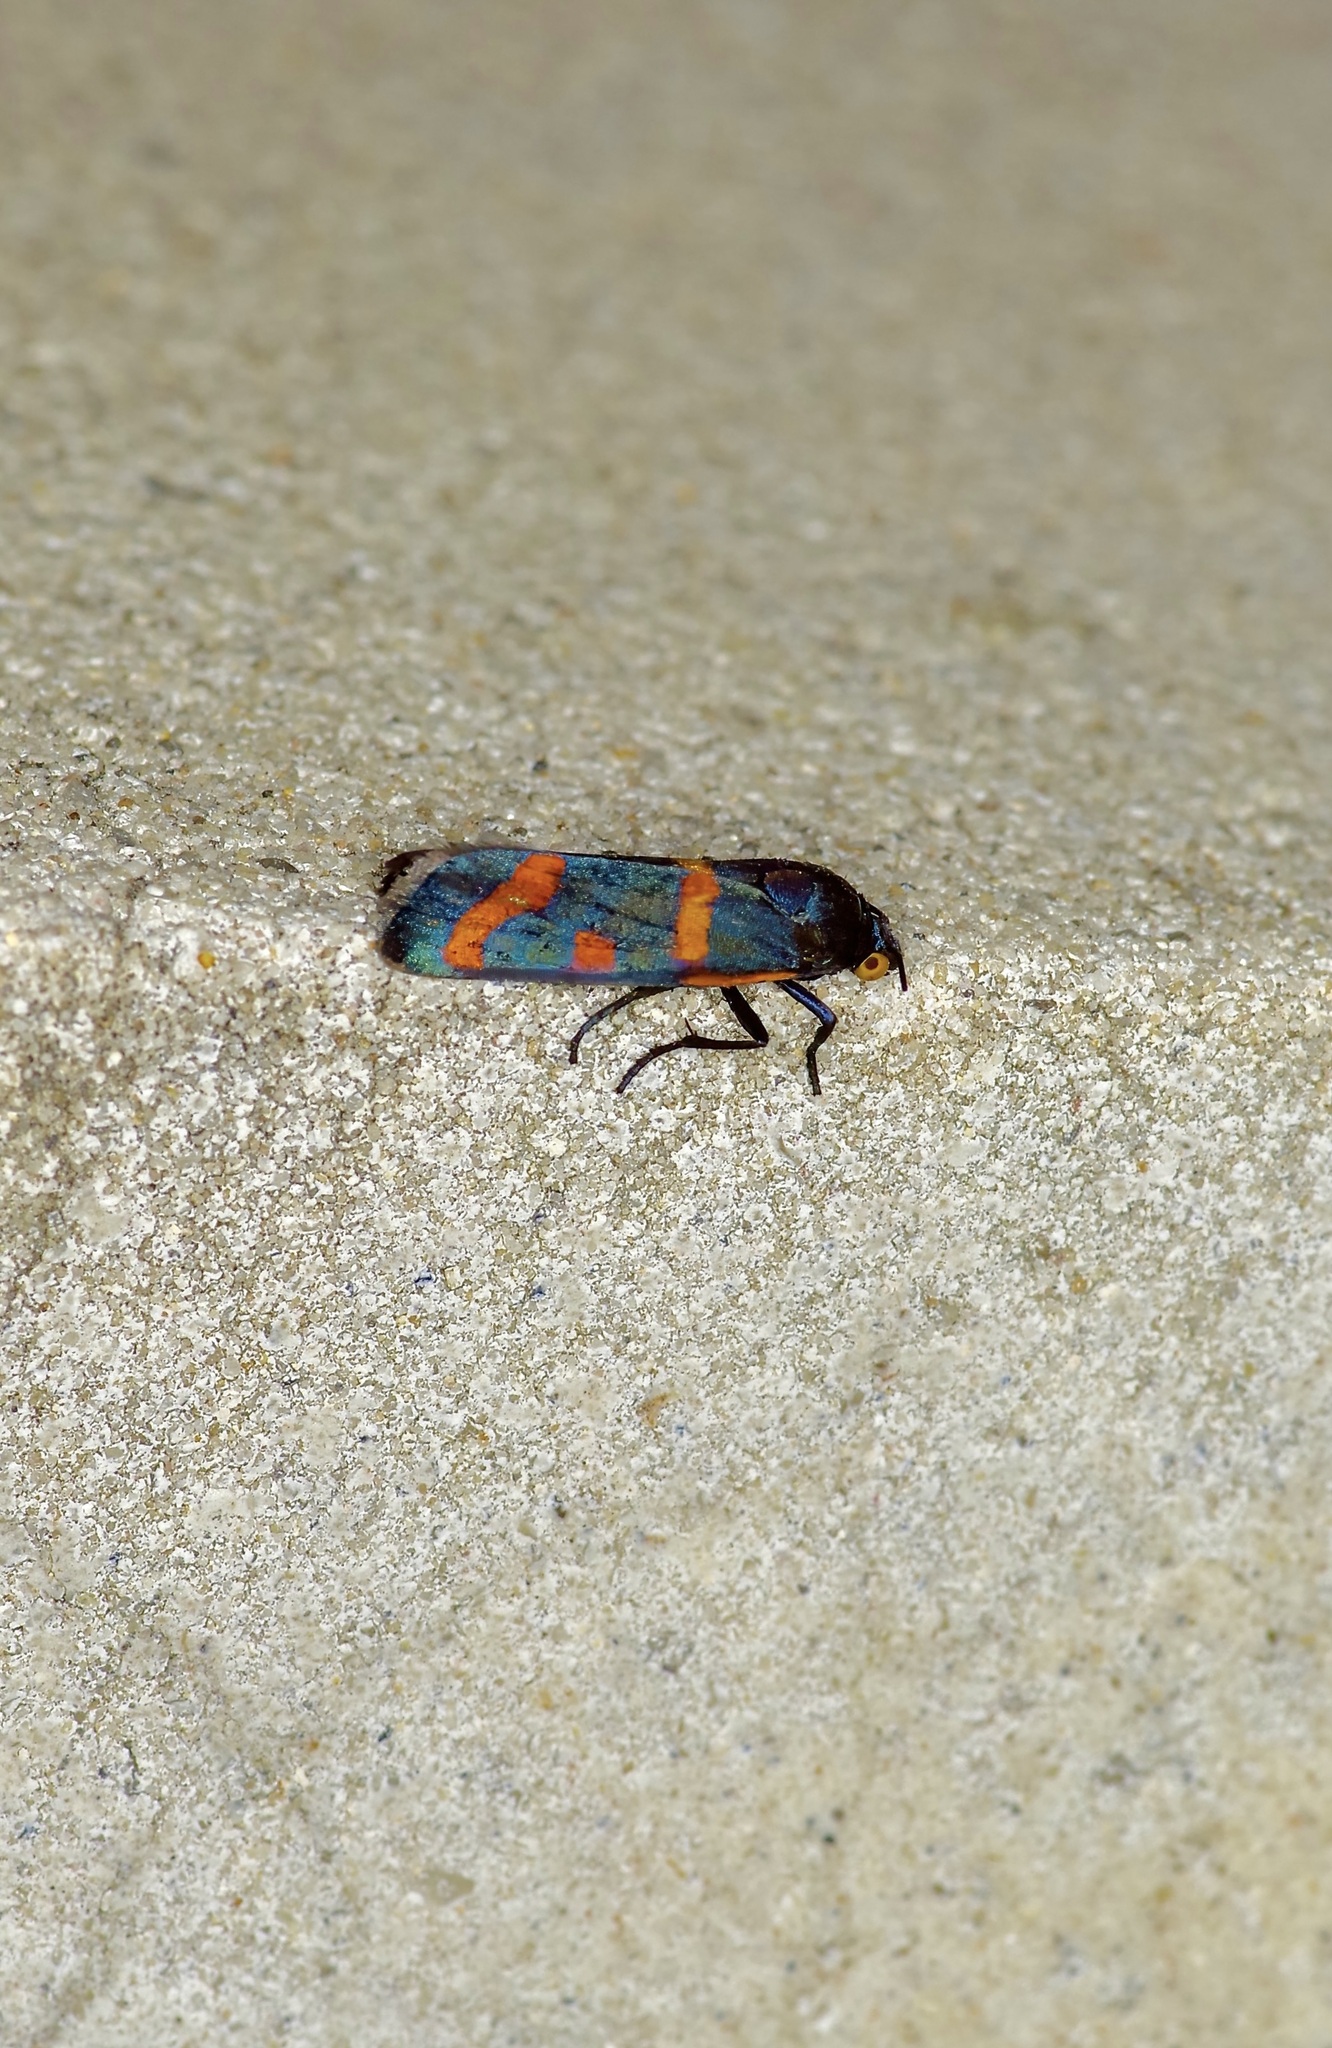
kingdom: Animalia
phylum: Arthropoda
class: Insecta
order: Lepidoptera
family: Noctuidae
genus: Cydosia
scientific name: Cydosia aurivitta
